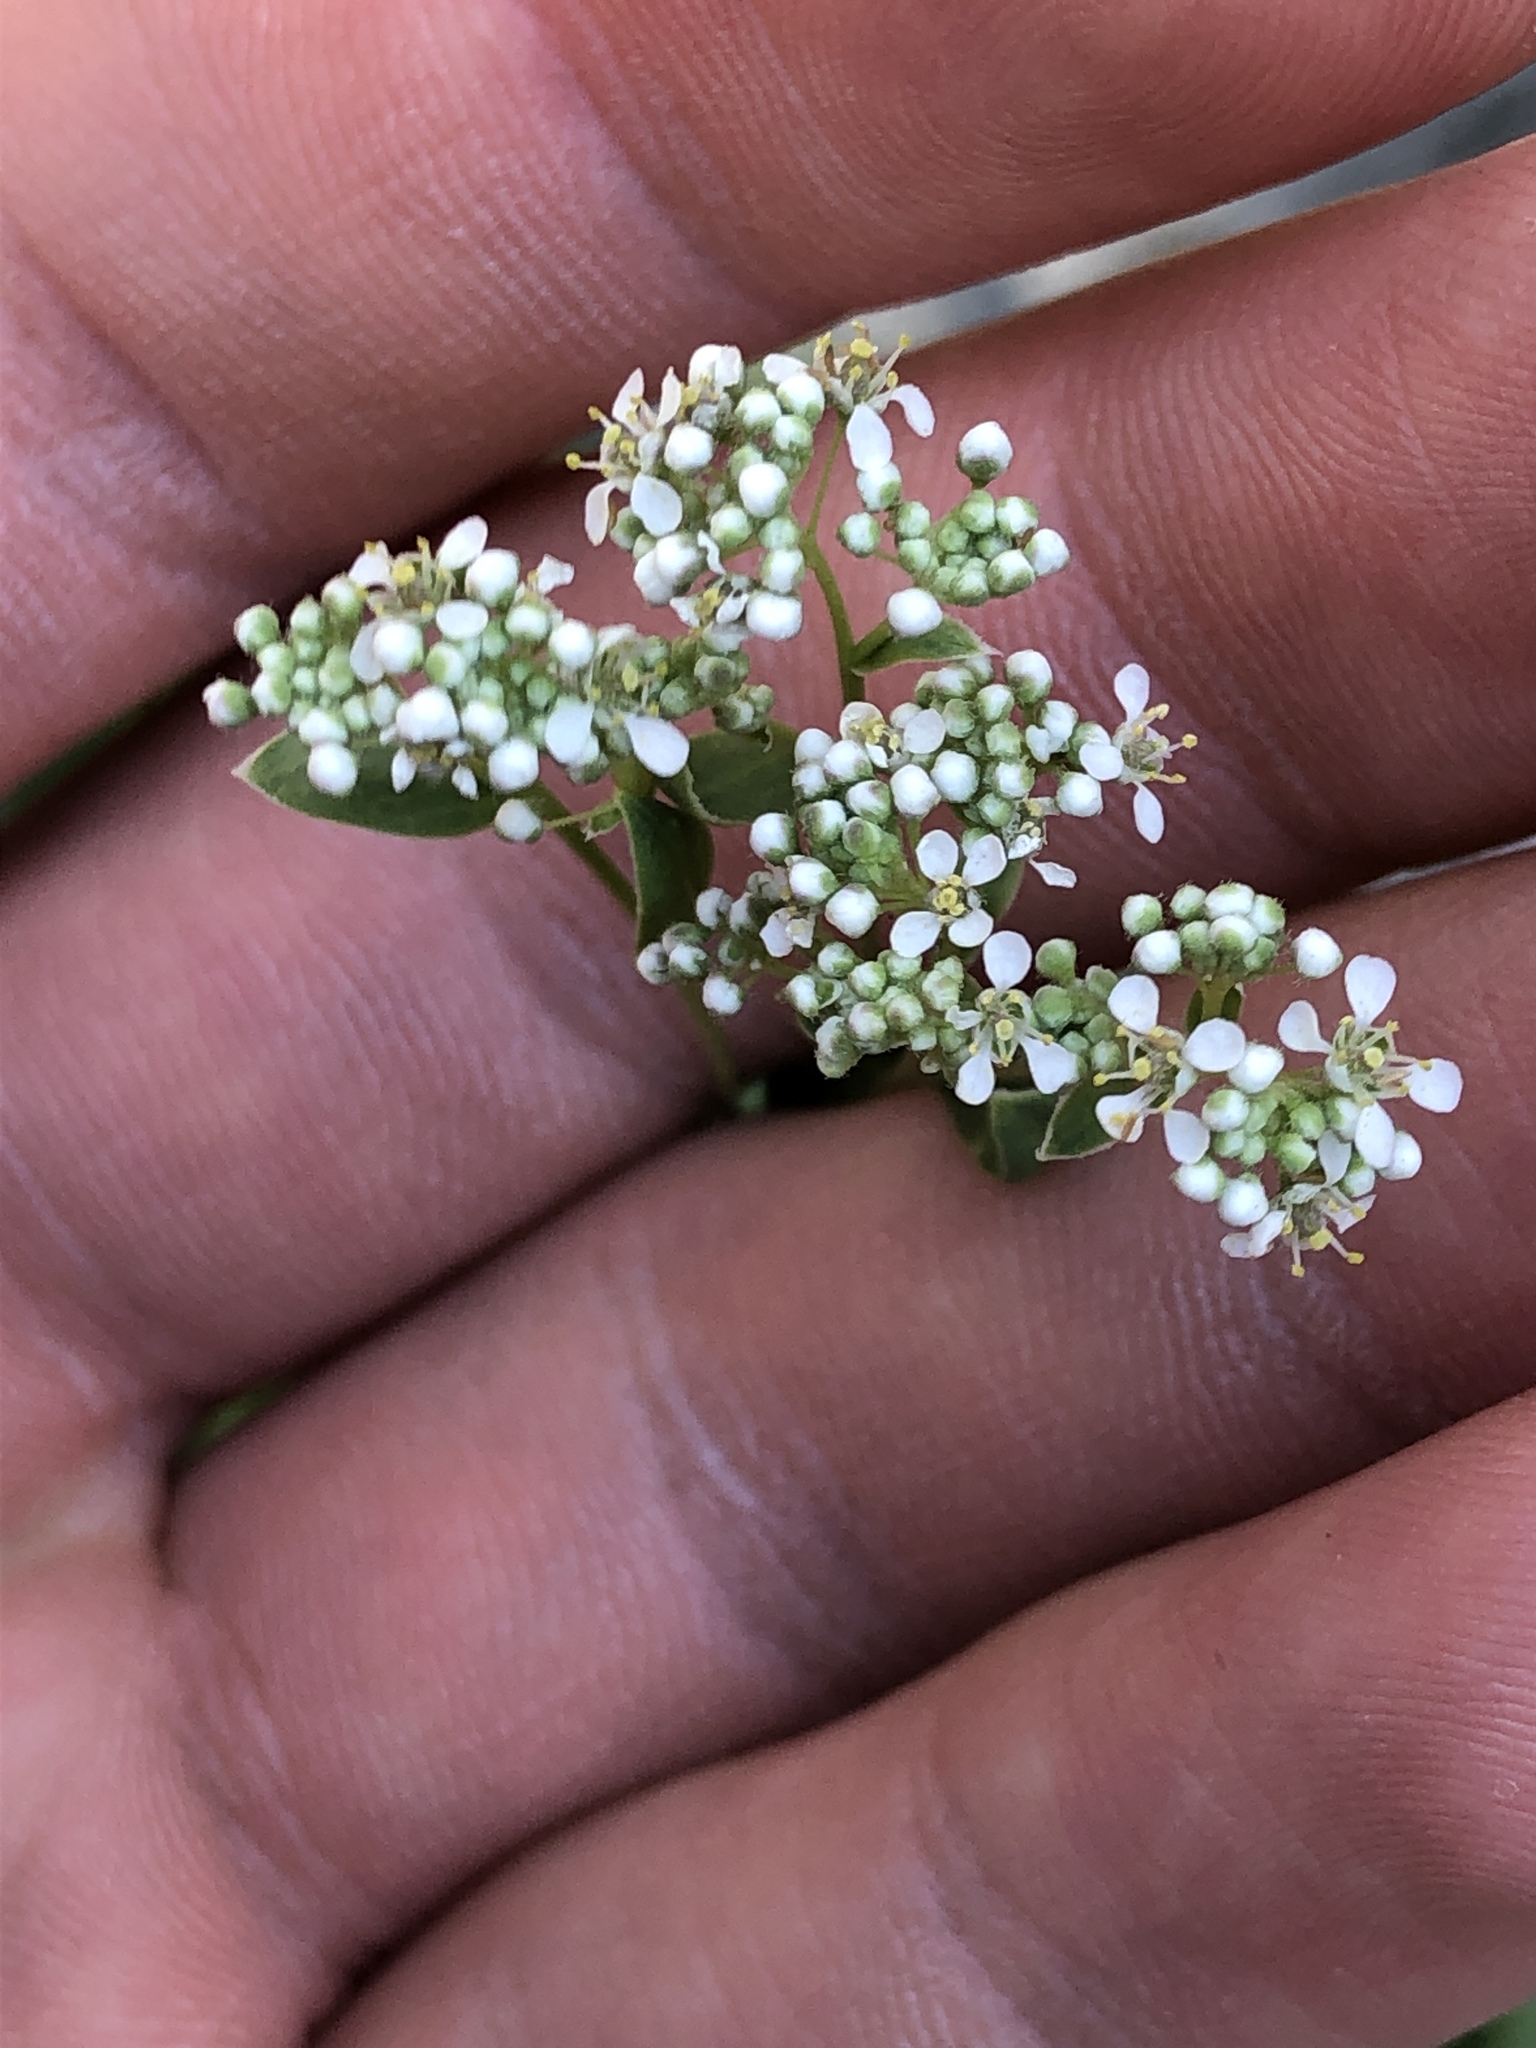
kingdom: Plantae
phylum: Tracheophyta
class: Magnoliopsida
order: Brassicales
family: Brassicaceae
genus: Lepidium
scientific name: Lepidium latifolium
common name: Dittander
